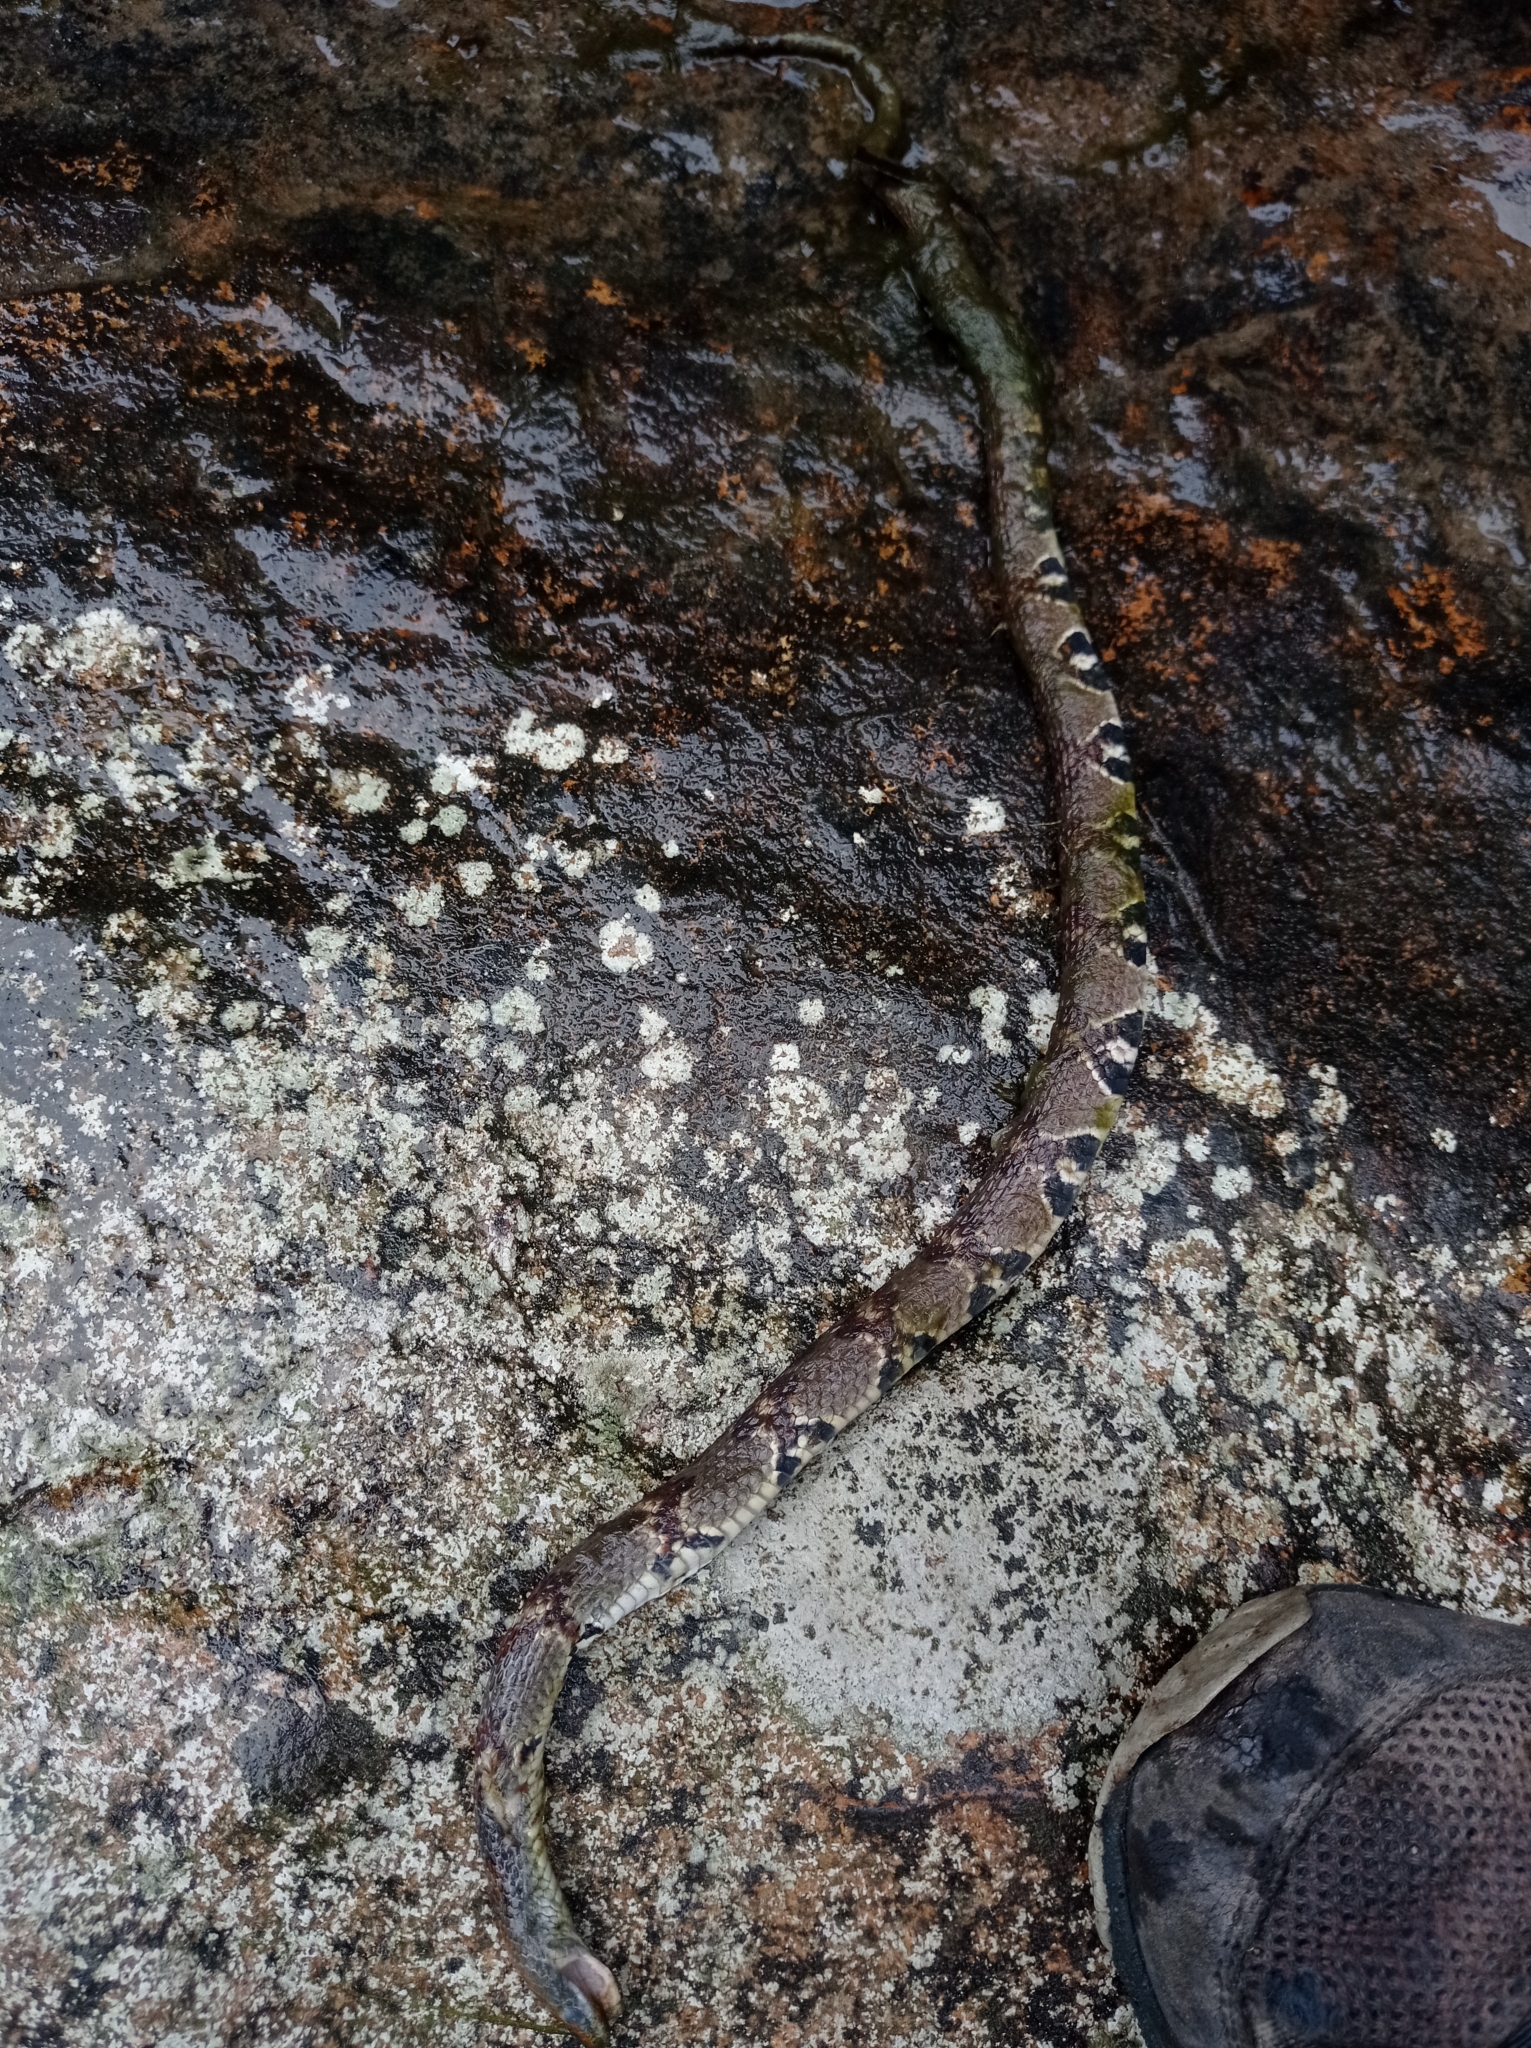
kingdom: Animalia
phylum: Chordata
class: Squamata
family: Colubridae
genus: Trimerodytes
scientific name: Trimerodytes aequifasciatus
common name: Asiatic water snake
